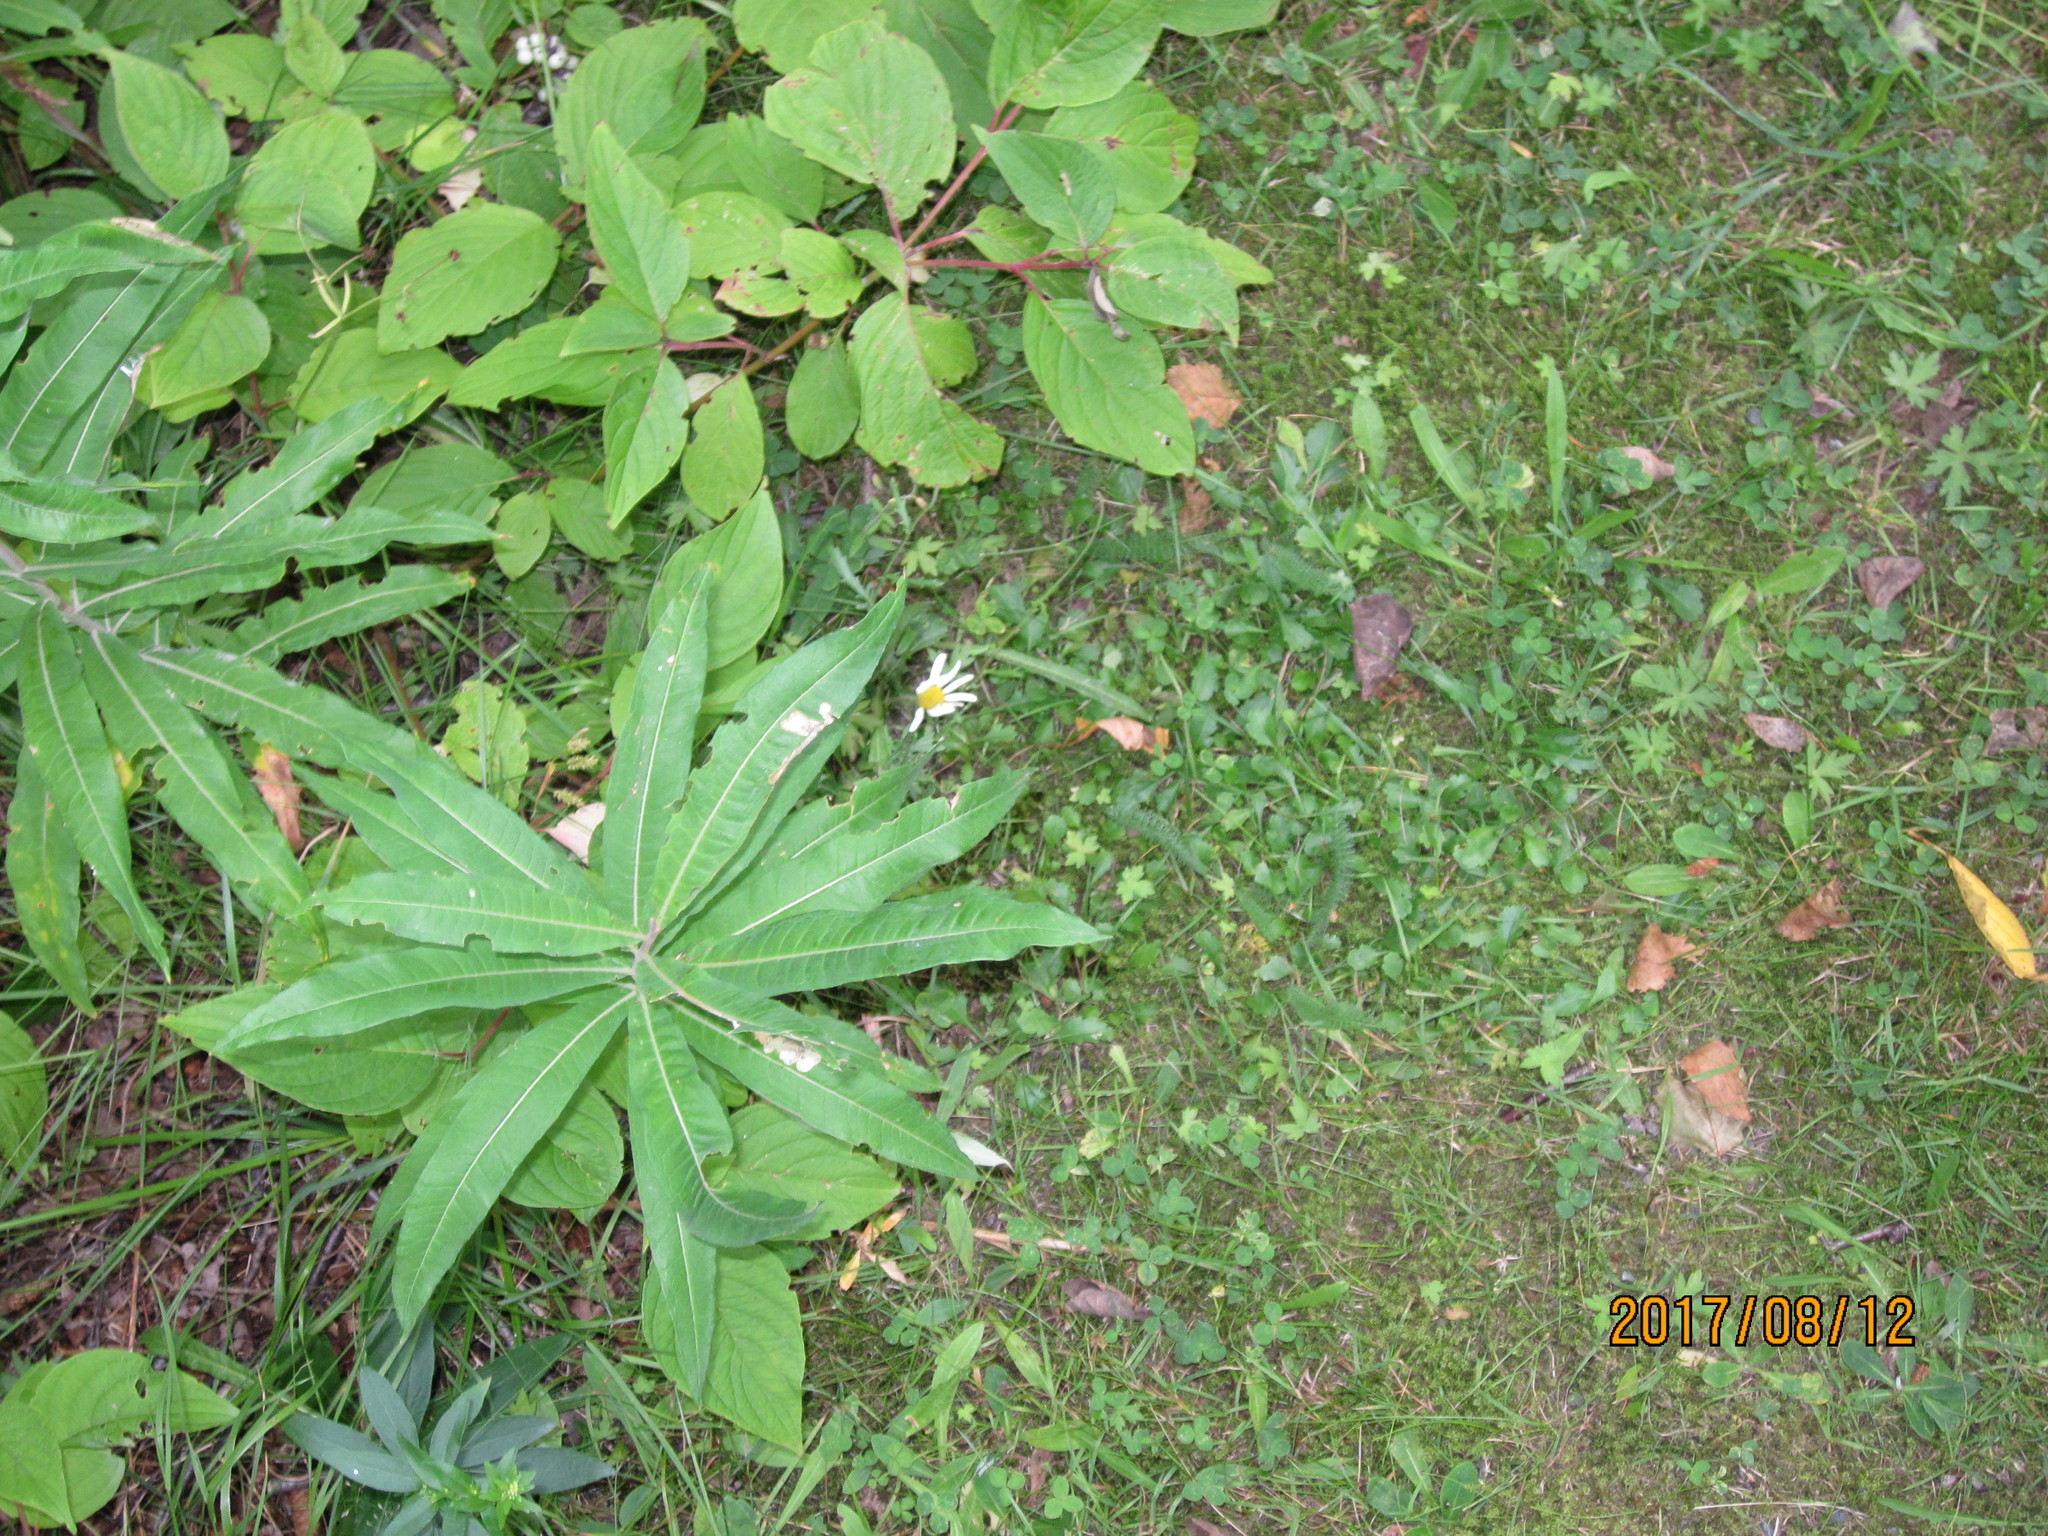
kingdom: Plantae
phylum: Tracheophyta
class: Magnoliopsida
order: Myrtales
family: Onagraceae
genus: Chamaenerion
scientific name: Chamaenerion angustifolium
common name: Fireweed
